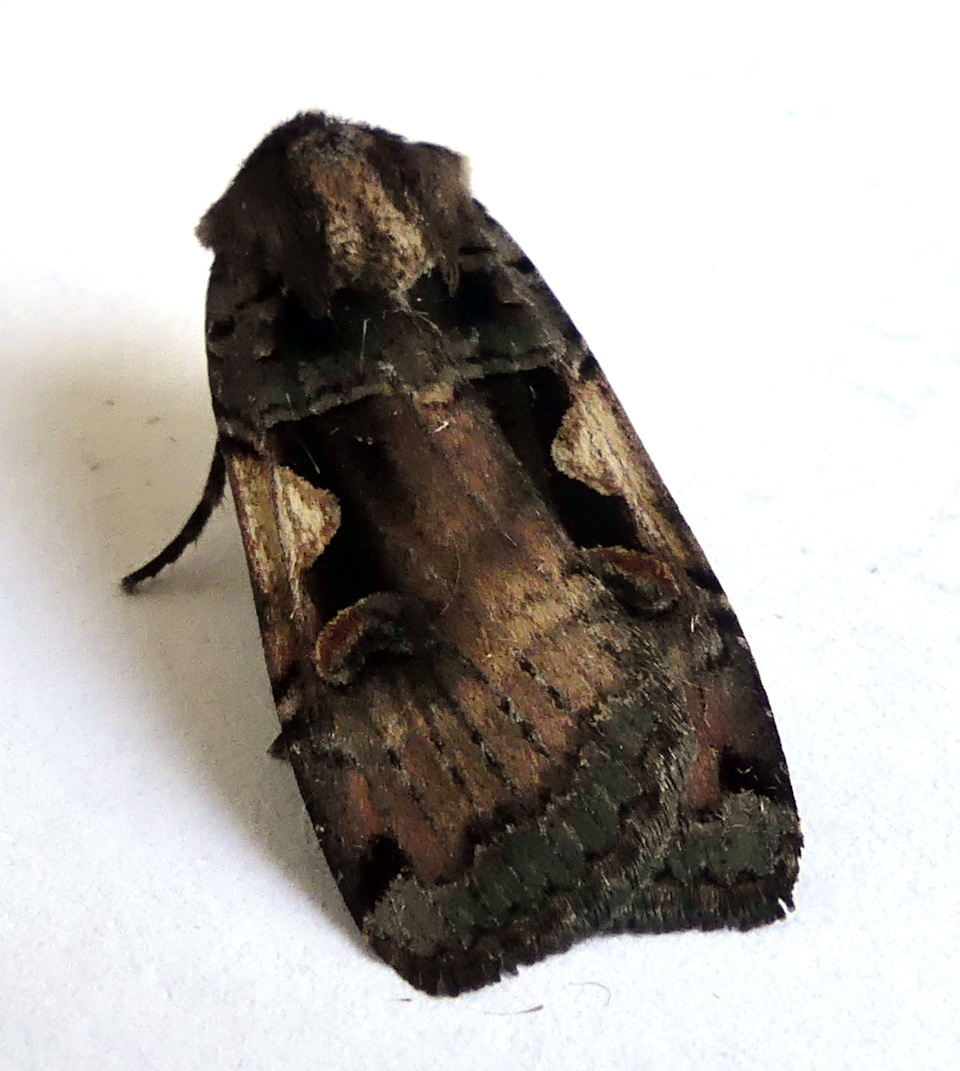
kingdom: Animalia
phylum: Arthropoda
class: Insecta
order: Lepidoptera
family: Noctuidae
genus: Xestia
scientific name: Xestia
